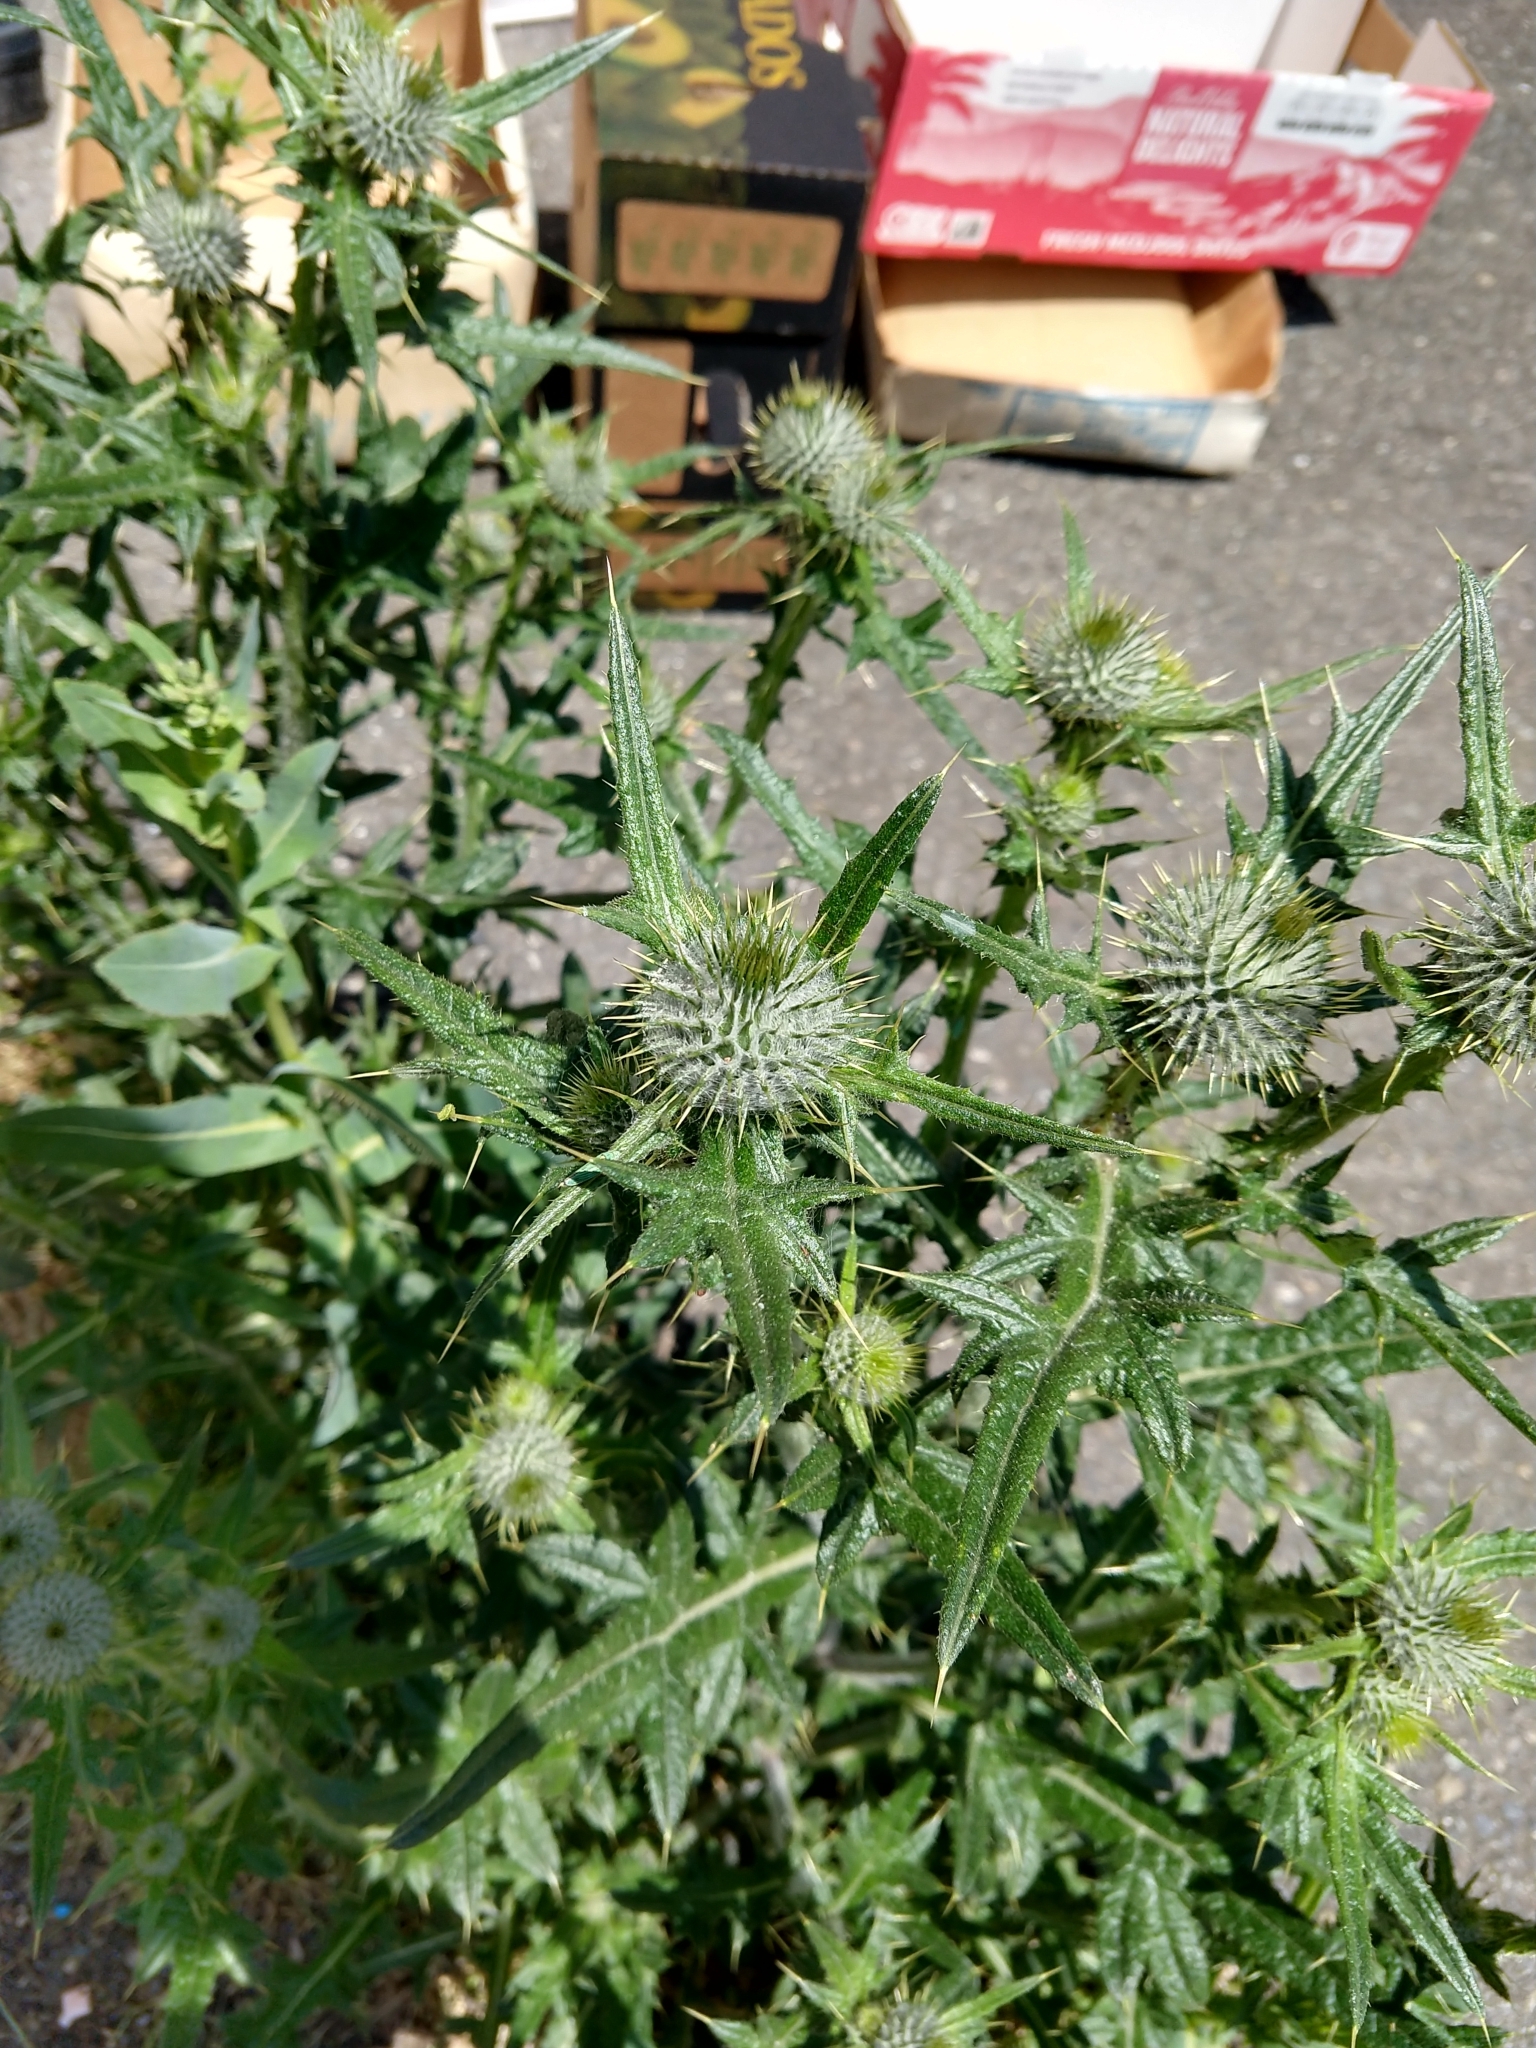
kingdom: Plantae
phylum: Tracheophyta
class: Magnoliopsida
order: Asterales
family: Asteraceae
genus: Cirsium
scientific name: Cirsium vulgare
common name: Bull thistle
